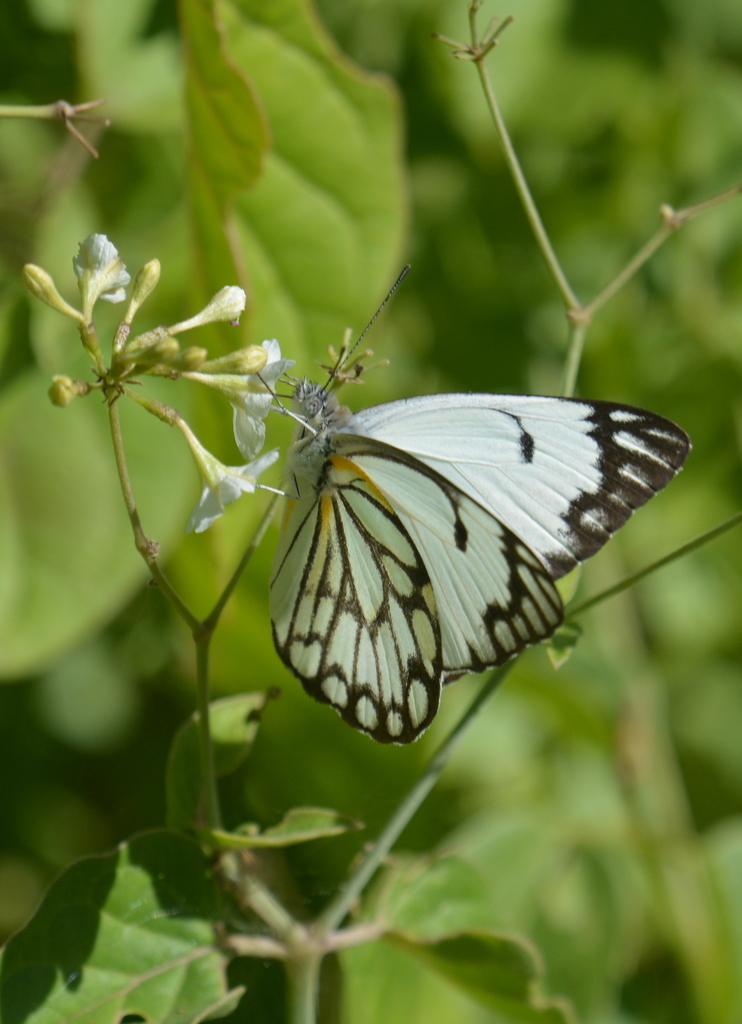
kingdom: Animalia
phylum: Arthropoda
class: Insecta
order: Lepidoptera
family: Pieridae
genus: Belenois
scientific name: Belenois aurota
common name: Brown-veined white
